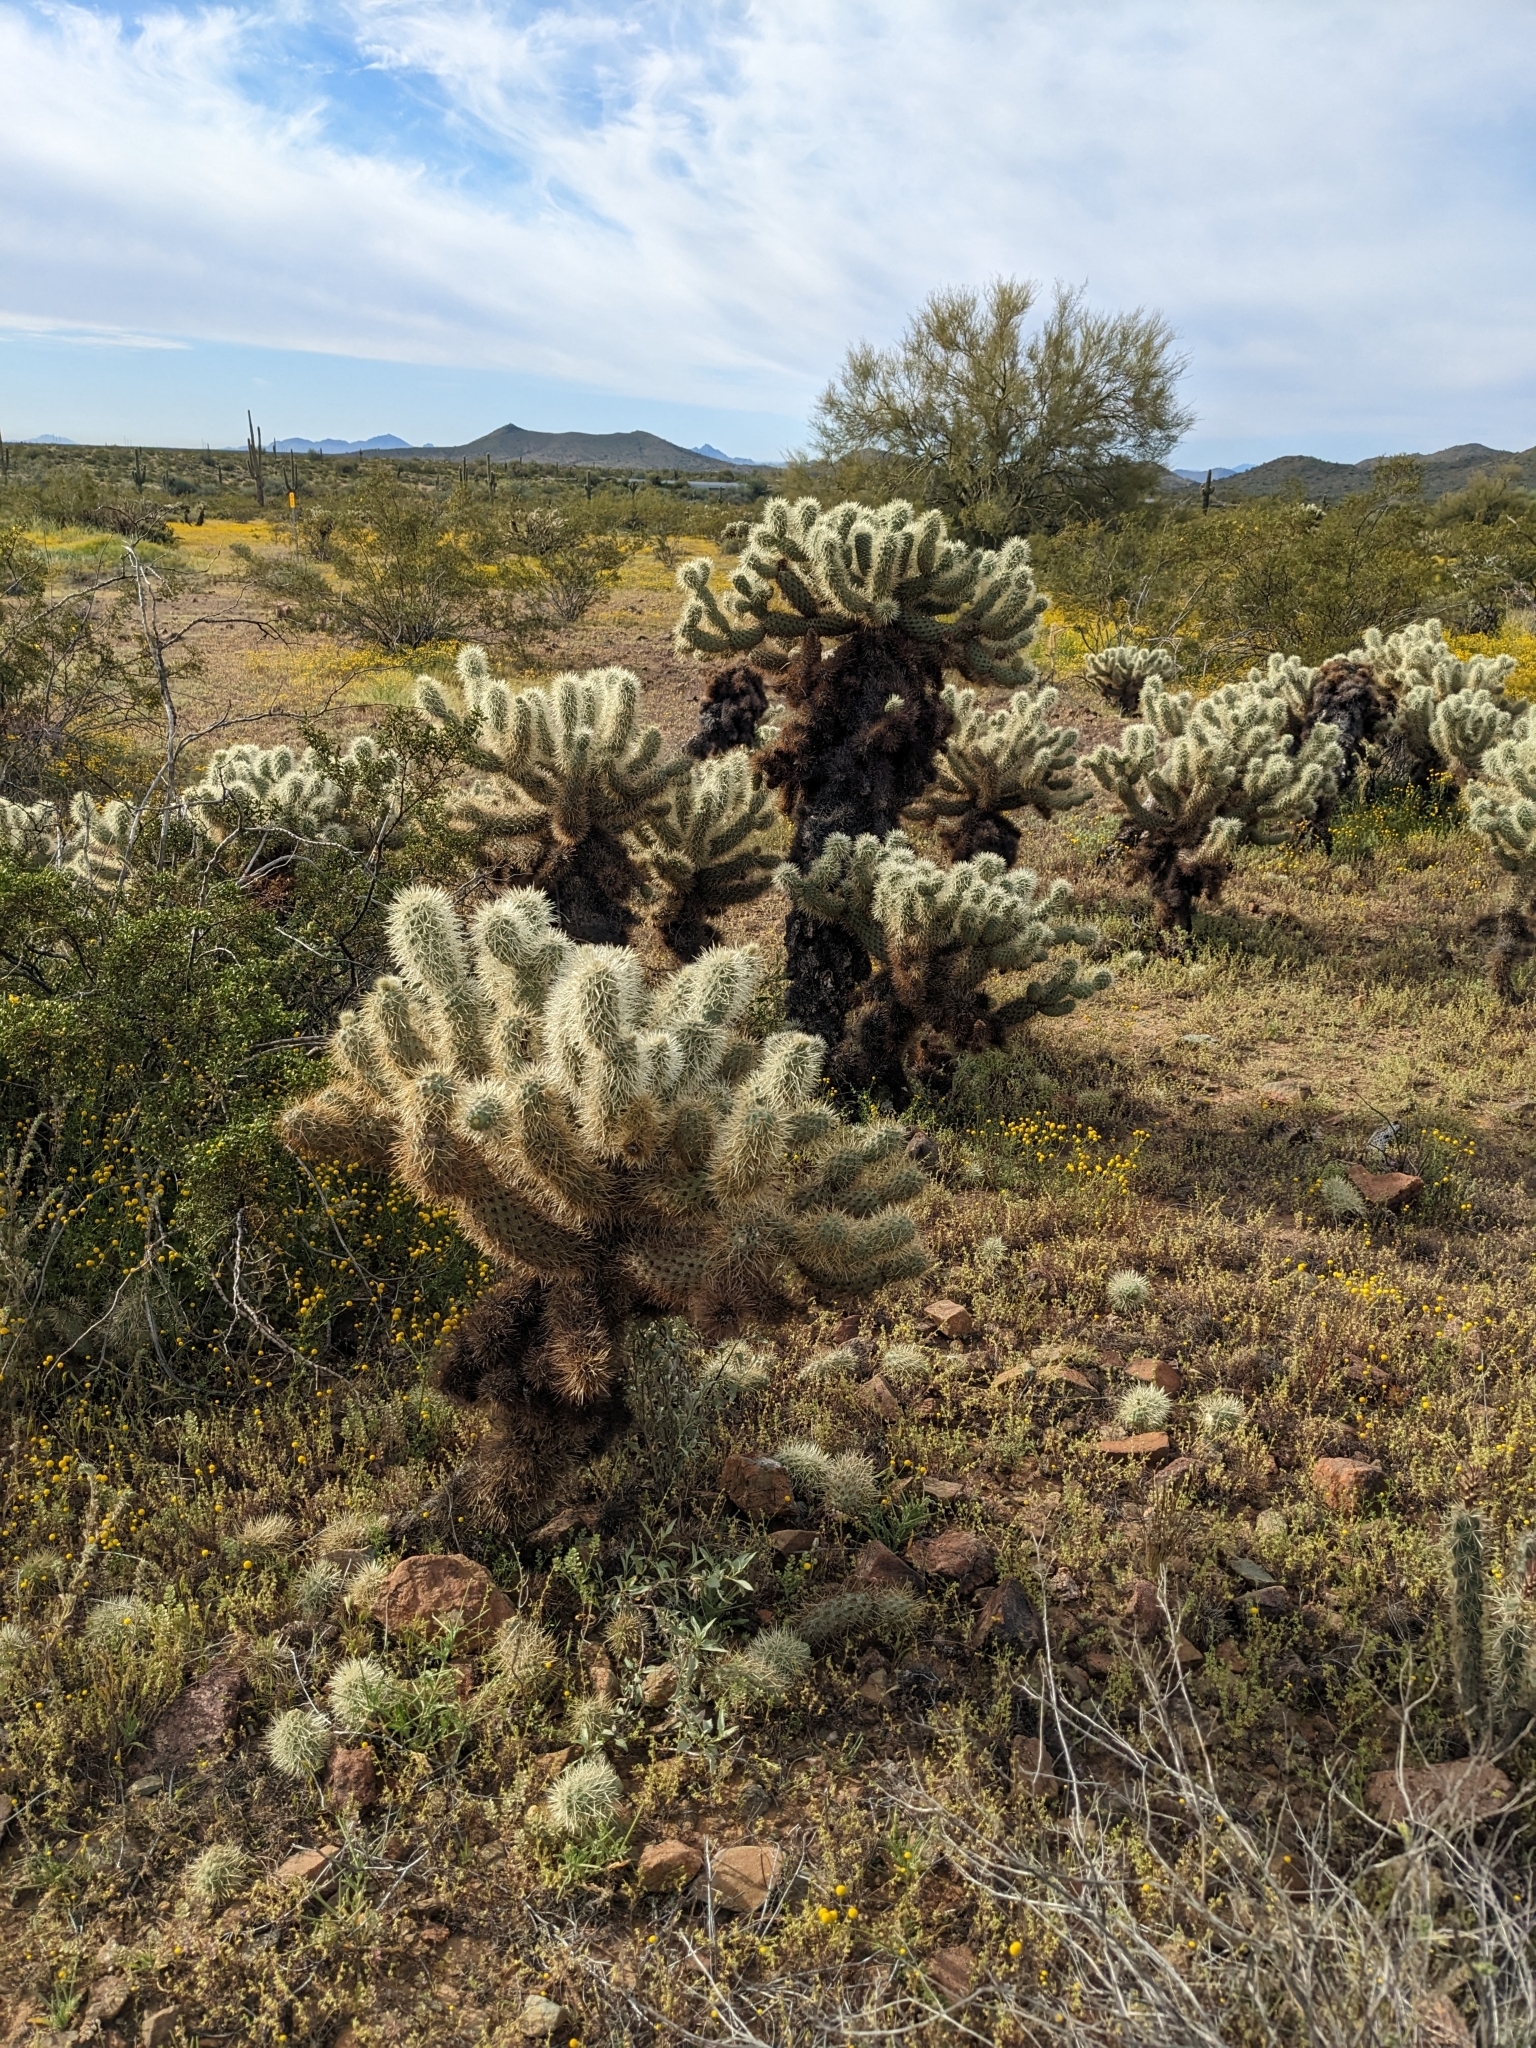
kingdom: Plantae
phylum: Tracheophyta
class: Magnoliopsida
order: Caryophyllales
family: Cactaceae
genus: Cylindropuntia
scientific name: Cylindropuntia fosbergii
